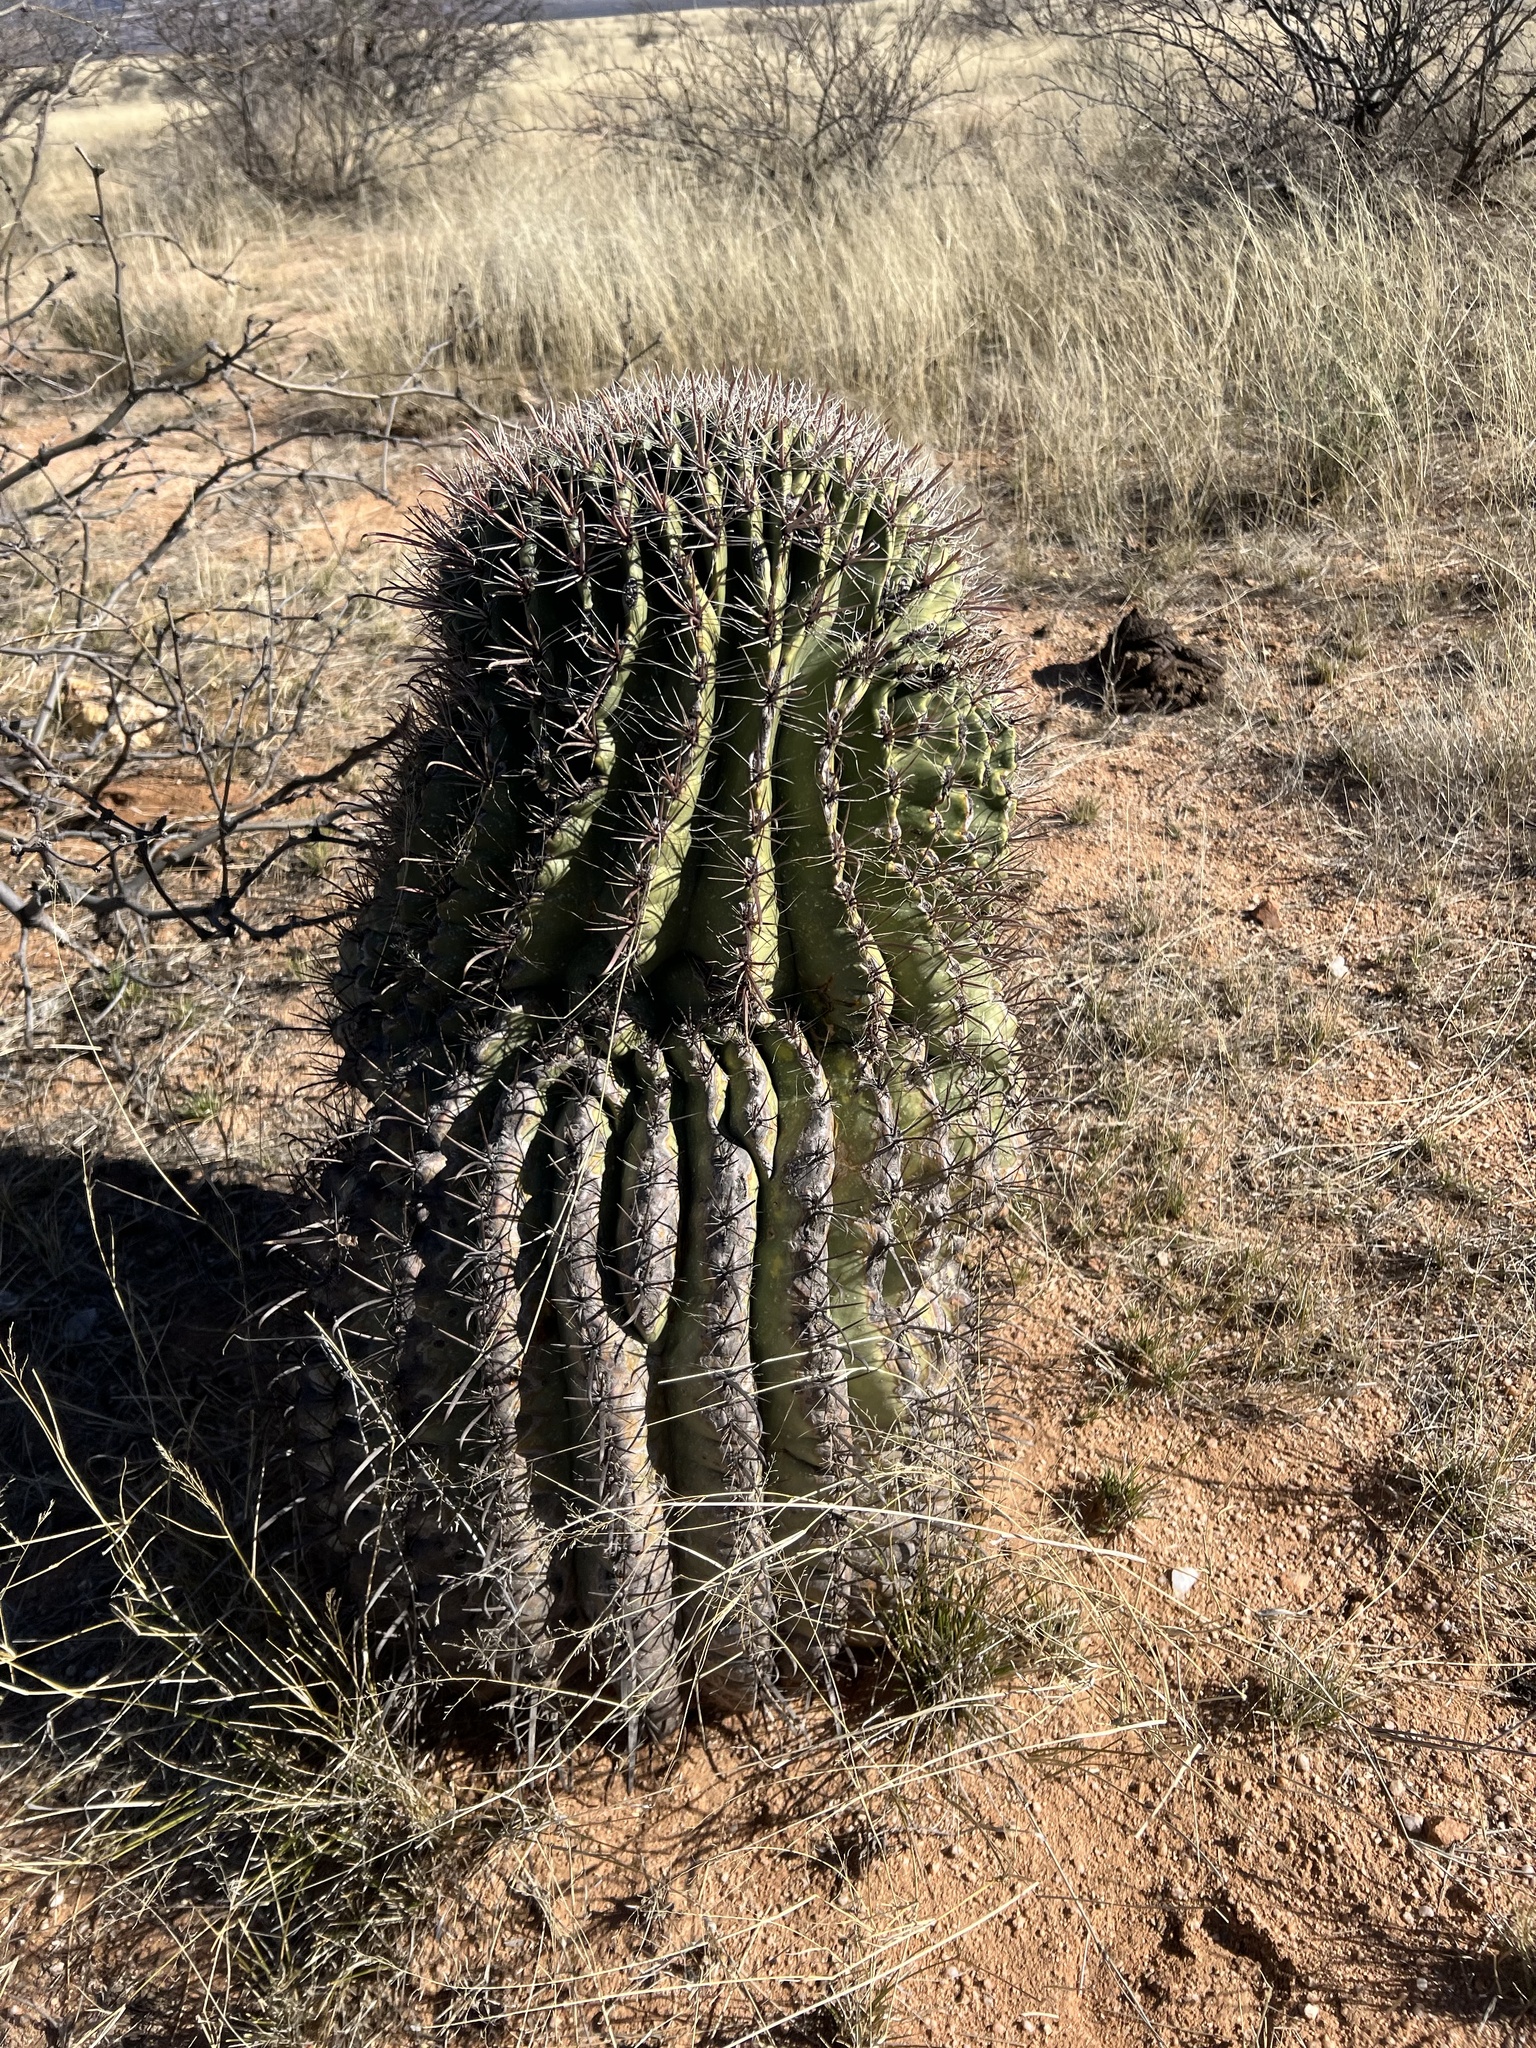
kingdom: Plantae
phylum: Tracheophyta
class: Magnoliopsida
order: Caryophyllales
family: Cactaceae
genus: Ferocactus
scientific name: Ferocactus wislizeni
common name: Candy barrel cactus
